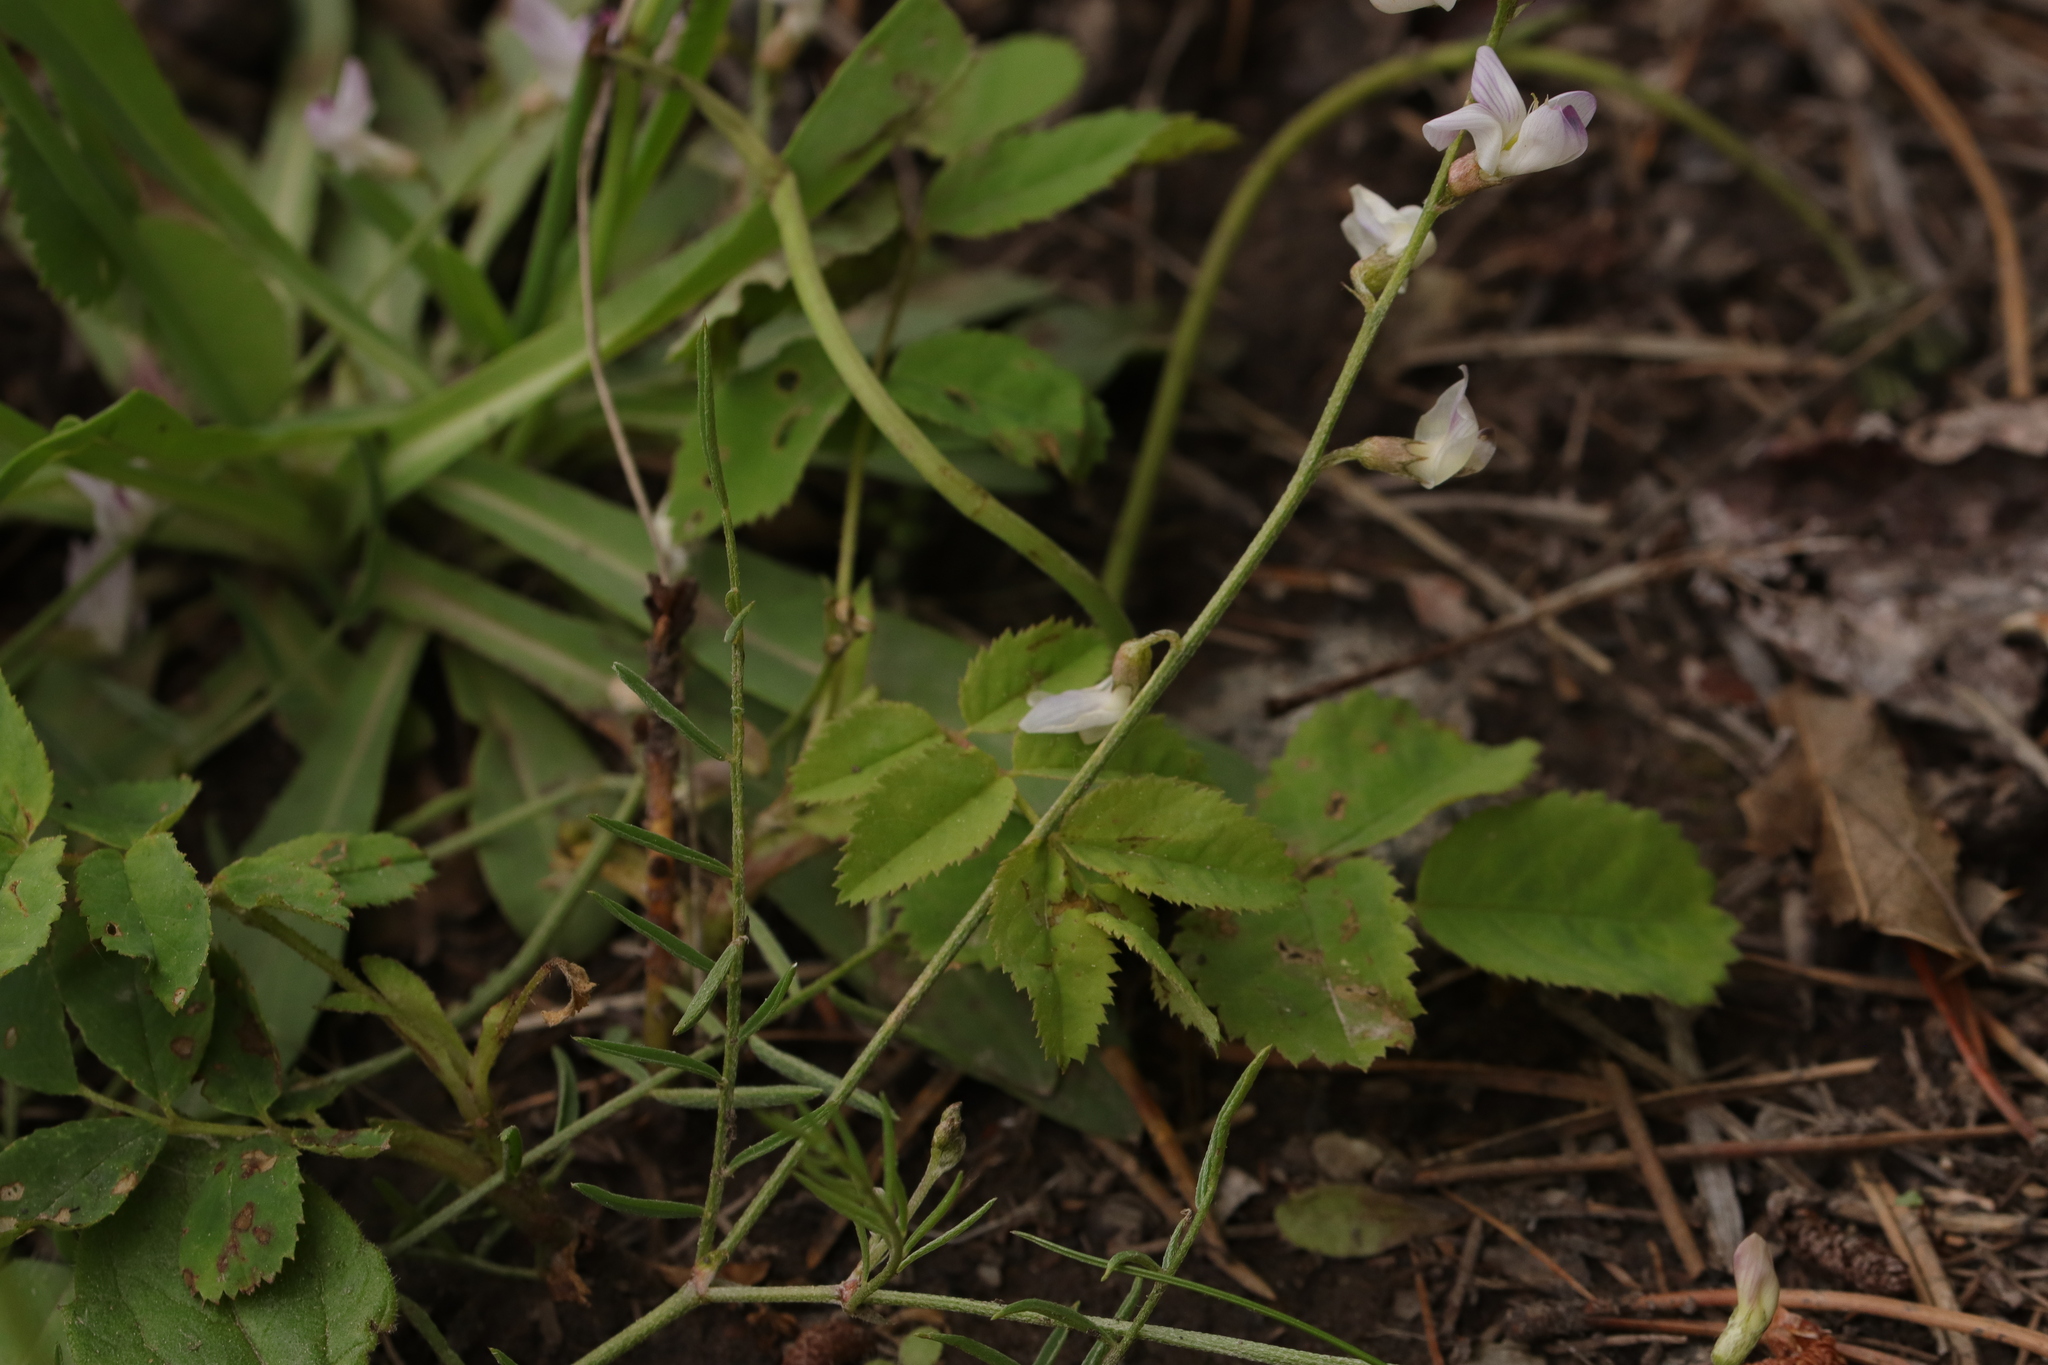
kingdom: Plantae
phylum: Tracheophyta
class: Magnoliopsida
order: Fabales
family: Fabaceae
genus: Astragalus
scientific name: Astragalus miser
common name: Timber milkvetch
